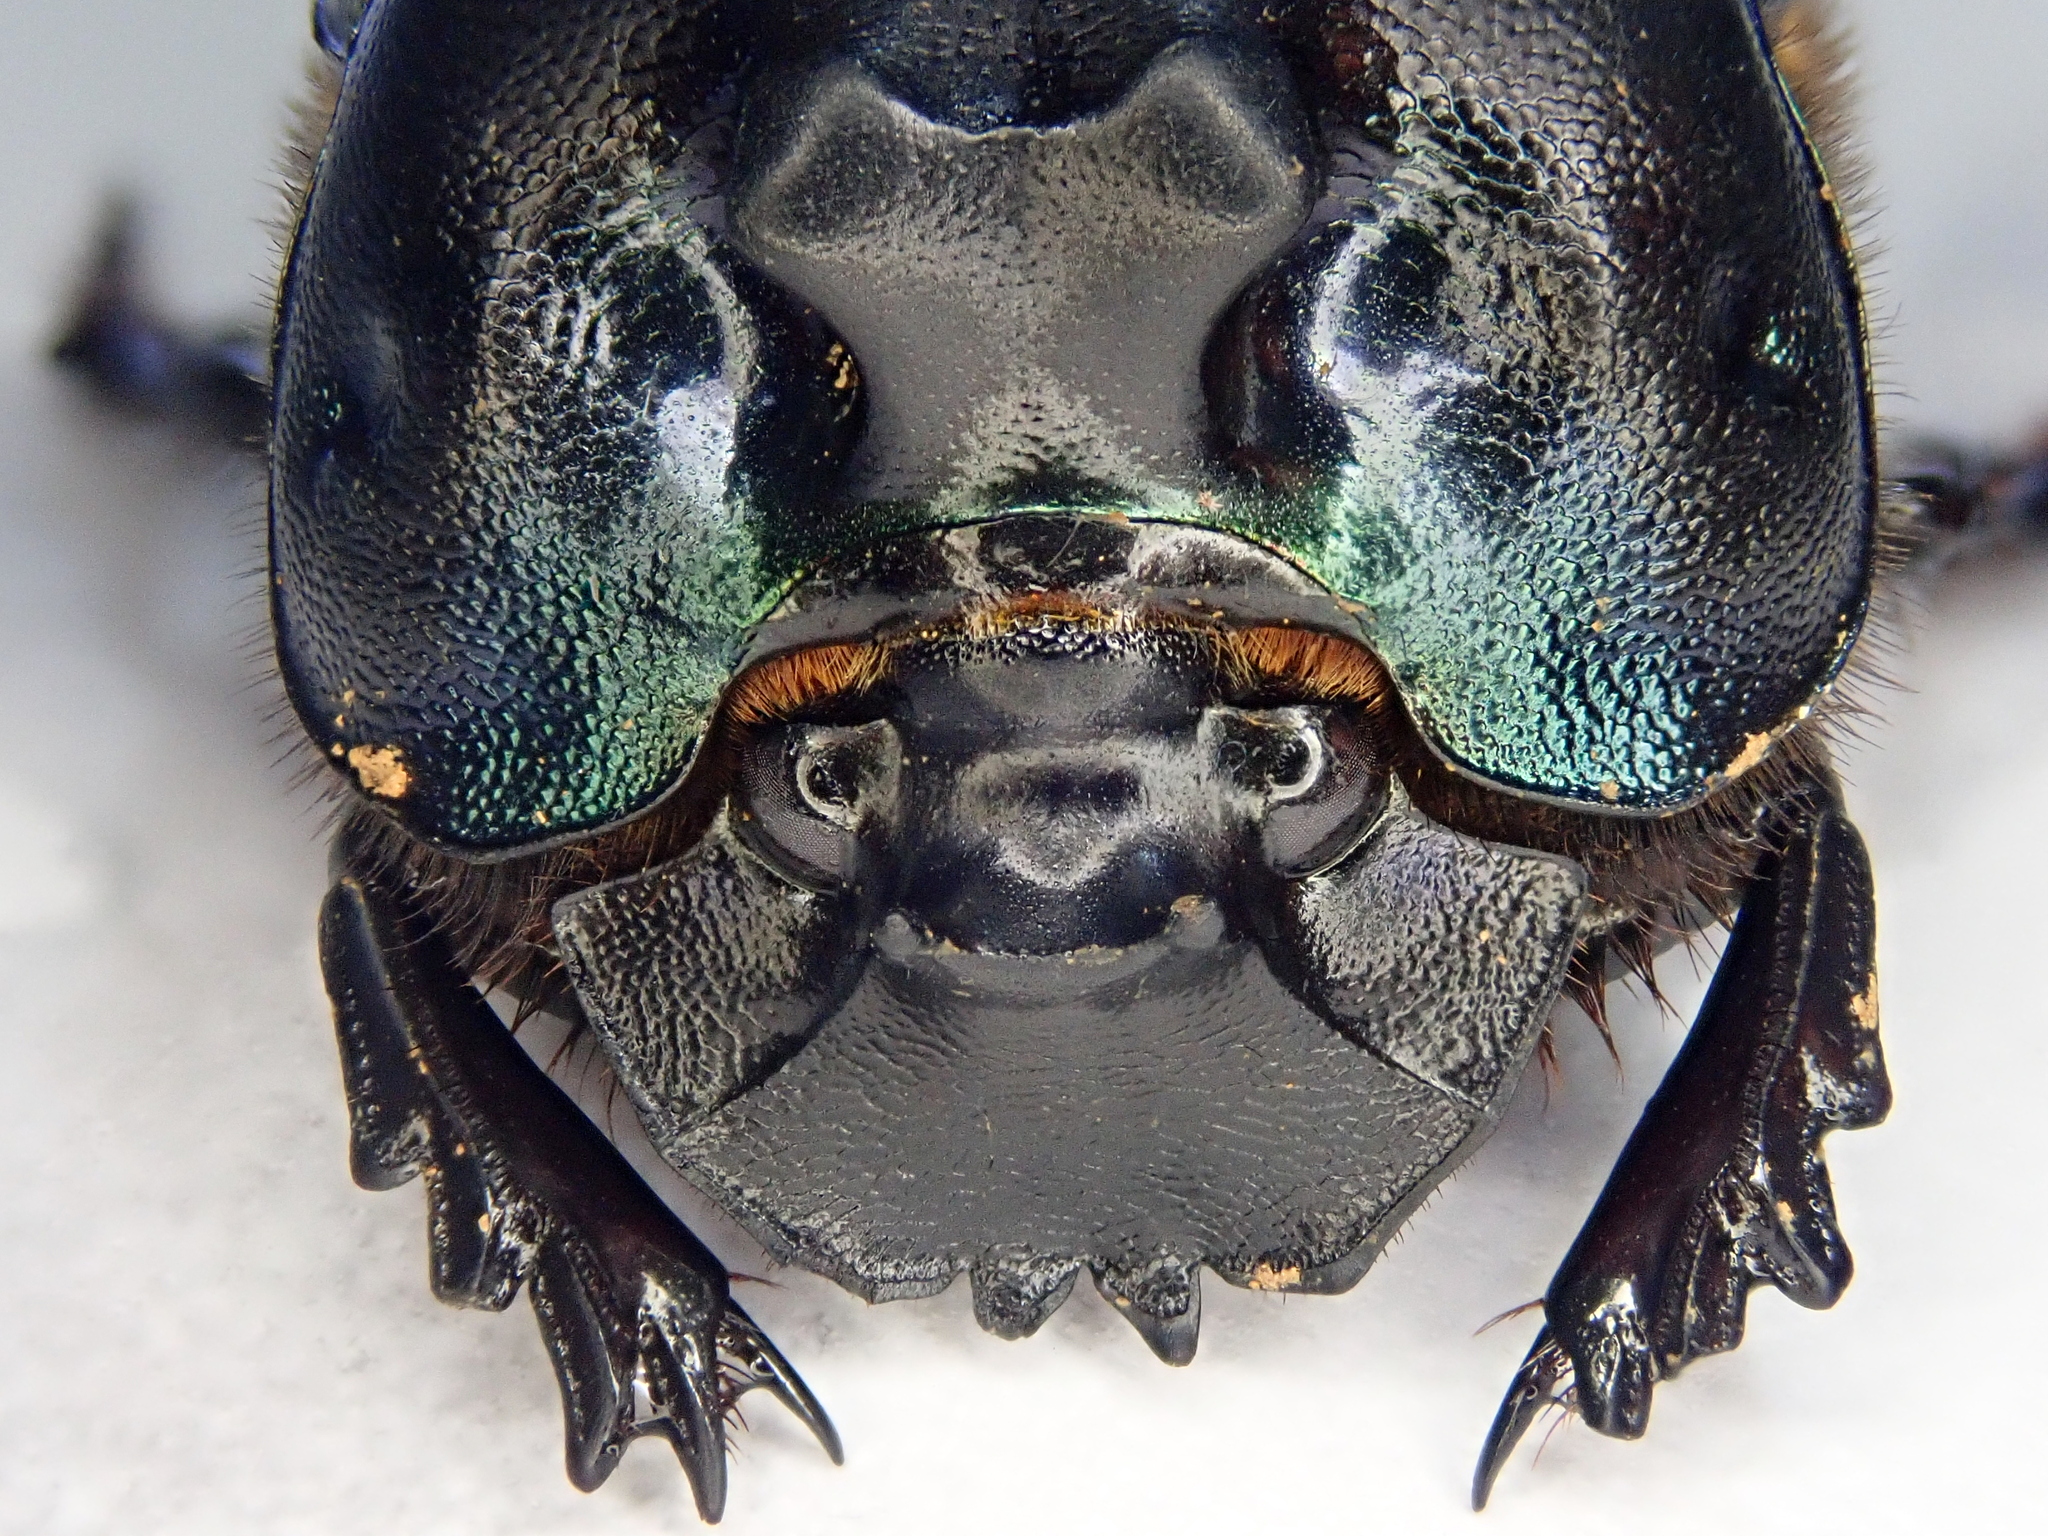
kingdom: Animalia
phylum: Arthropoda
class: Insecta
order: Coleoptera
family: Scarabaeidae
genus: Coprophanaeus
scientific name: Coprophanaeus dardanus
